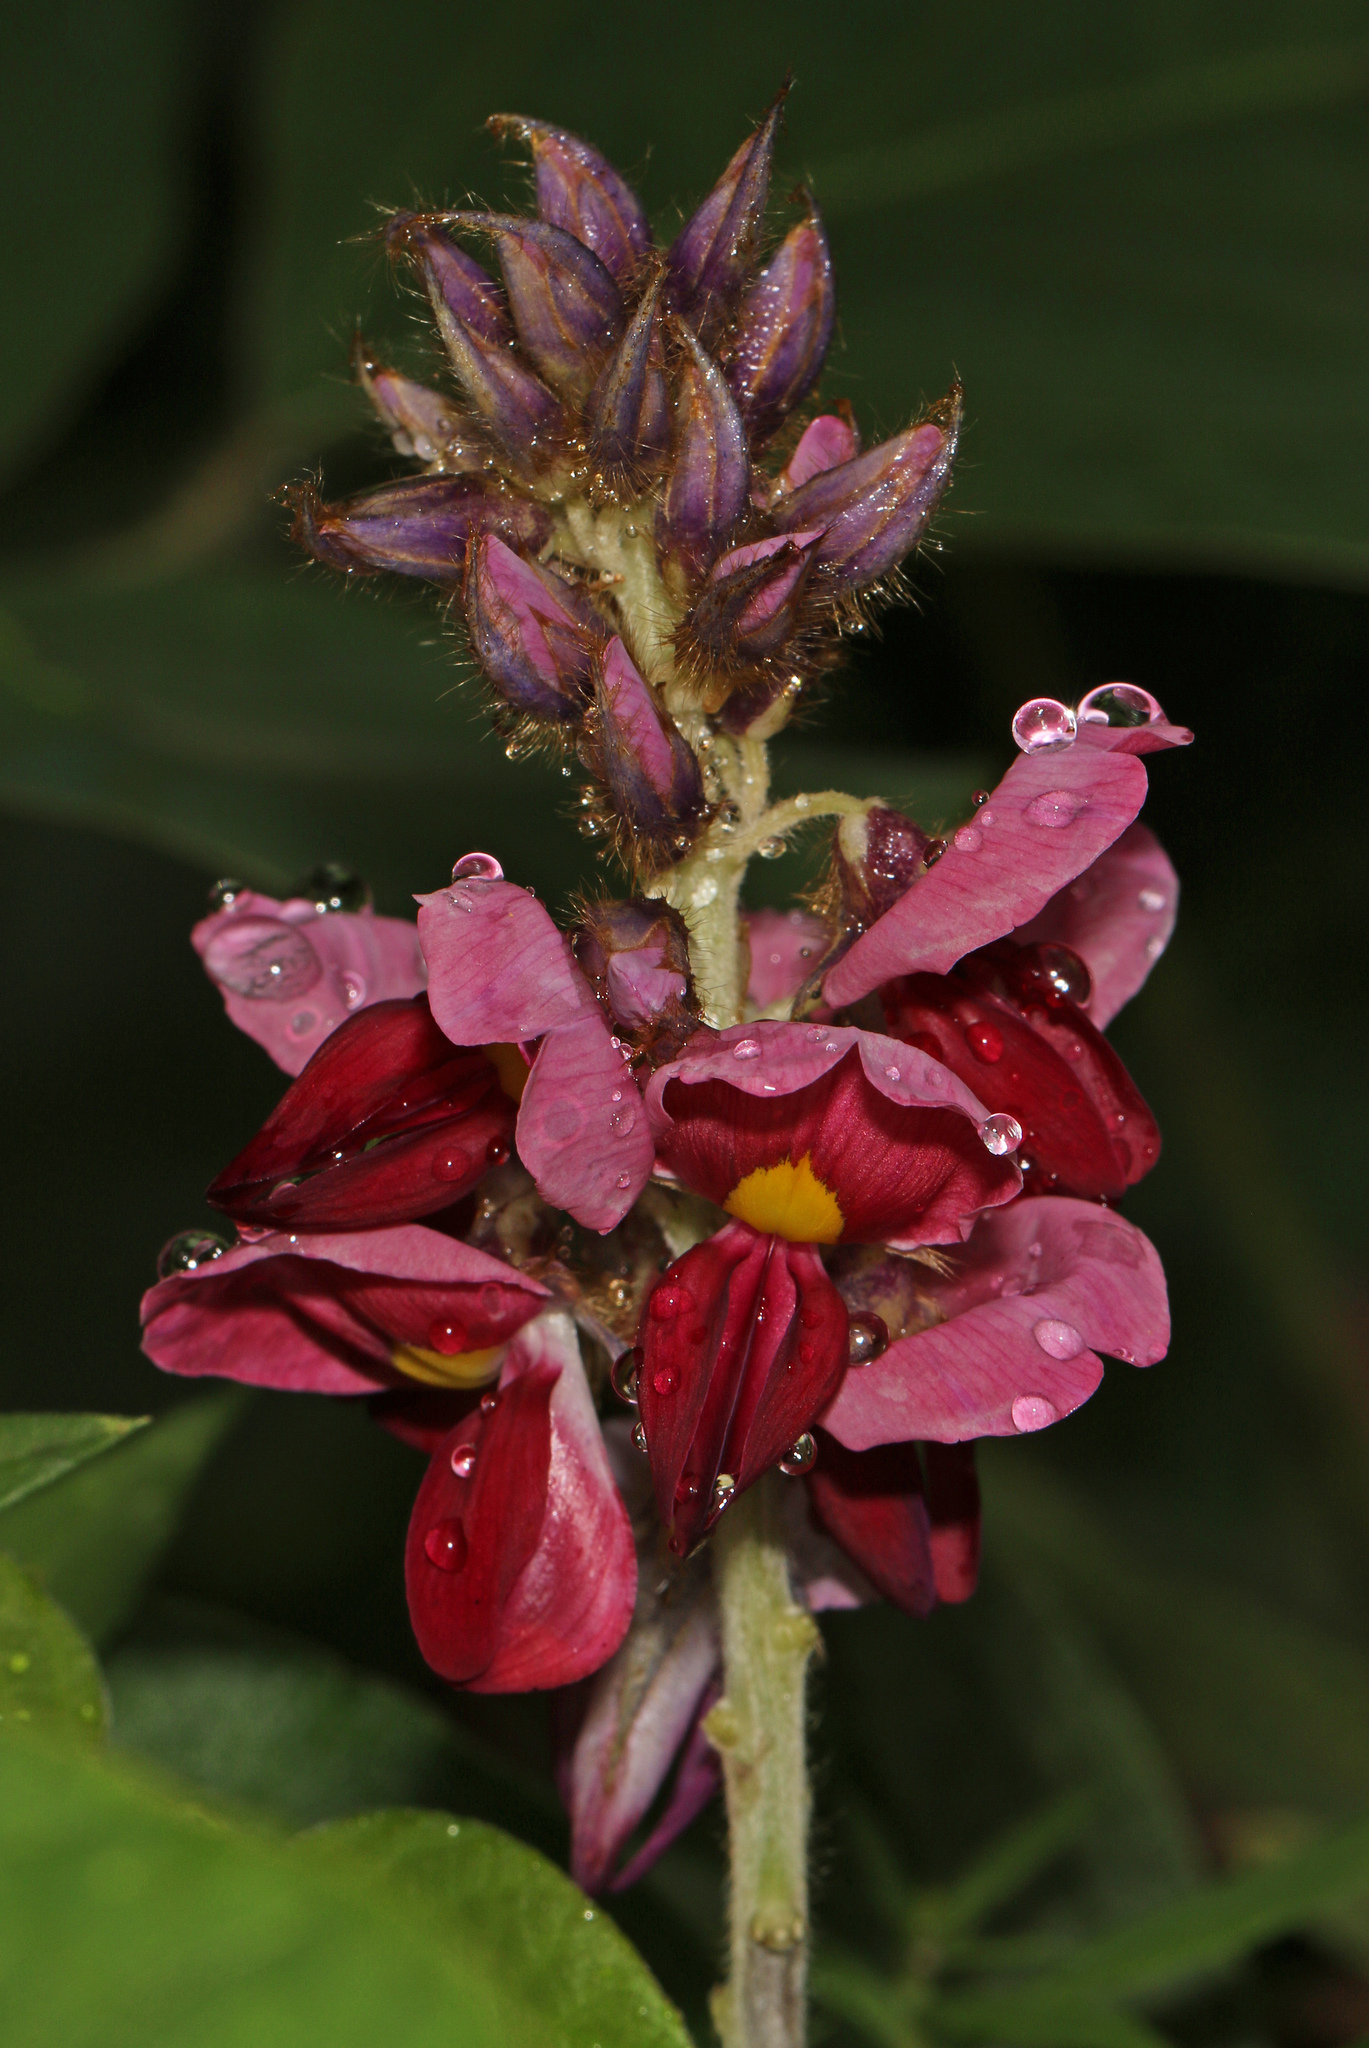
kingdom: Plantae
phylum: Tracheophyta
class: Magnoliopsida
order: Fabales
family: Fabaceae
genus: Pueraria
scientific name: Pueraria montana
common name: Kudzu
